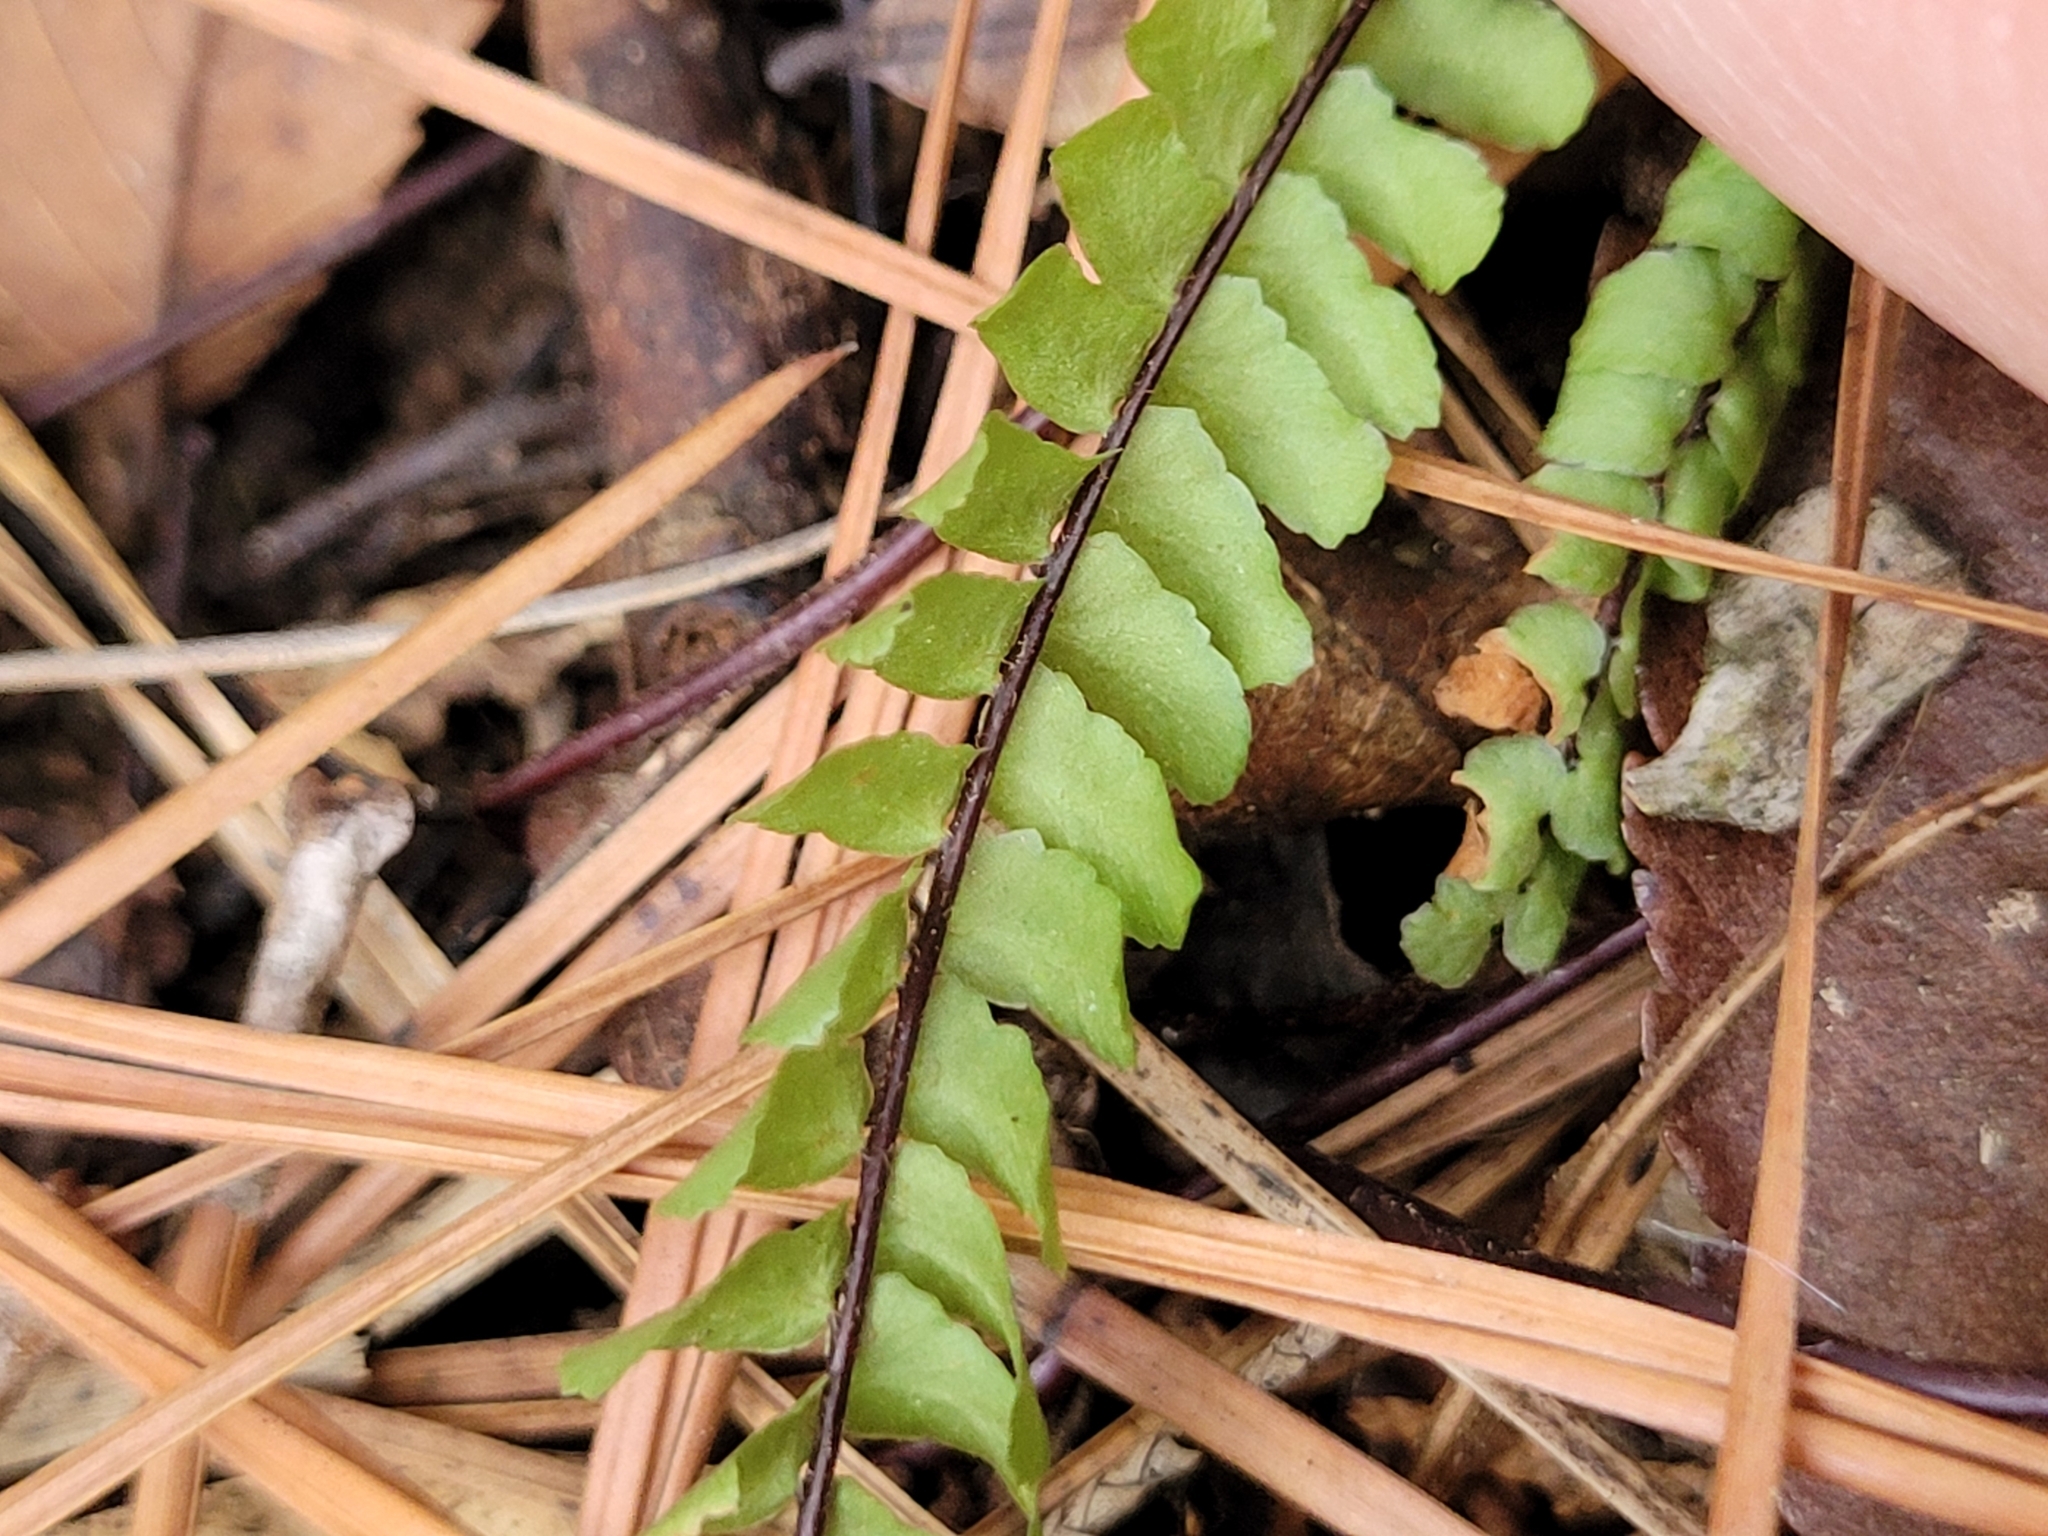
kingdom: Plantae
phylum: Tracheophyta
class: Polypodiopsida
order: Polypodiales
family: Aspleniaceae
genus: Asplenium
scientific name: Asplenium platyneuron
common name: Ebony spleenwort
